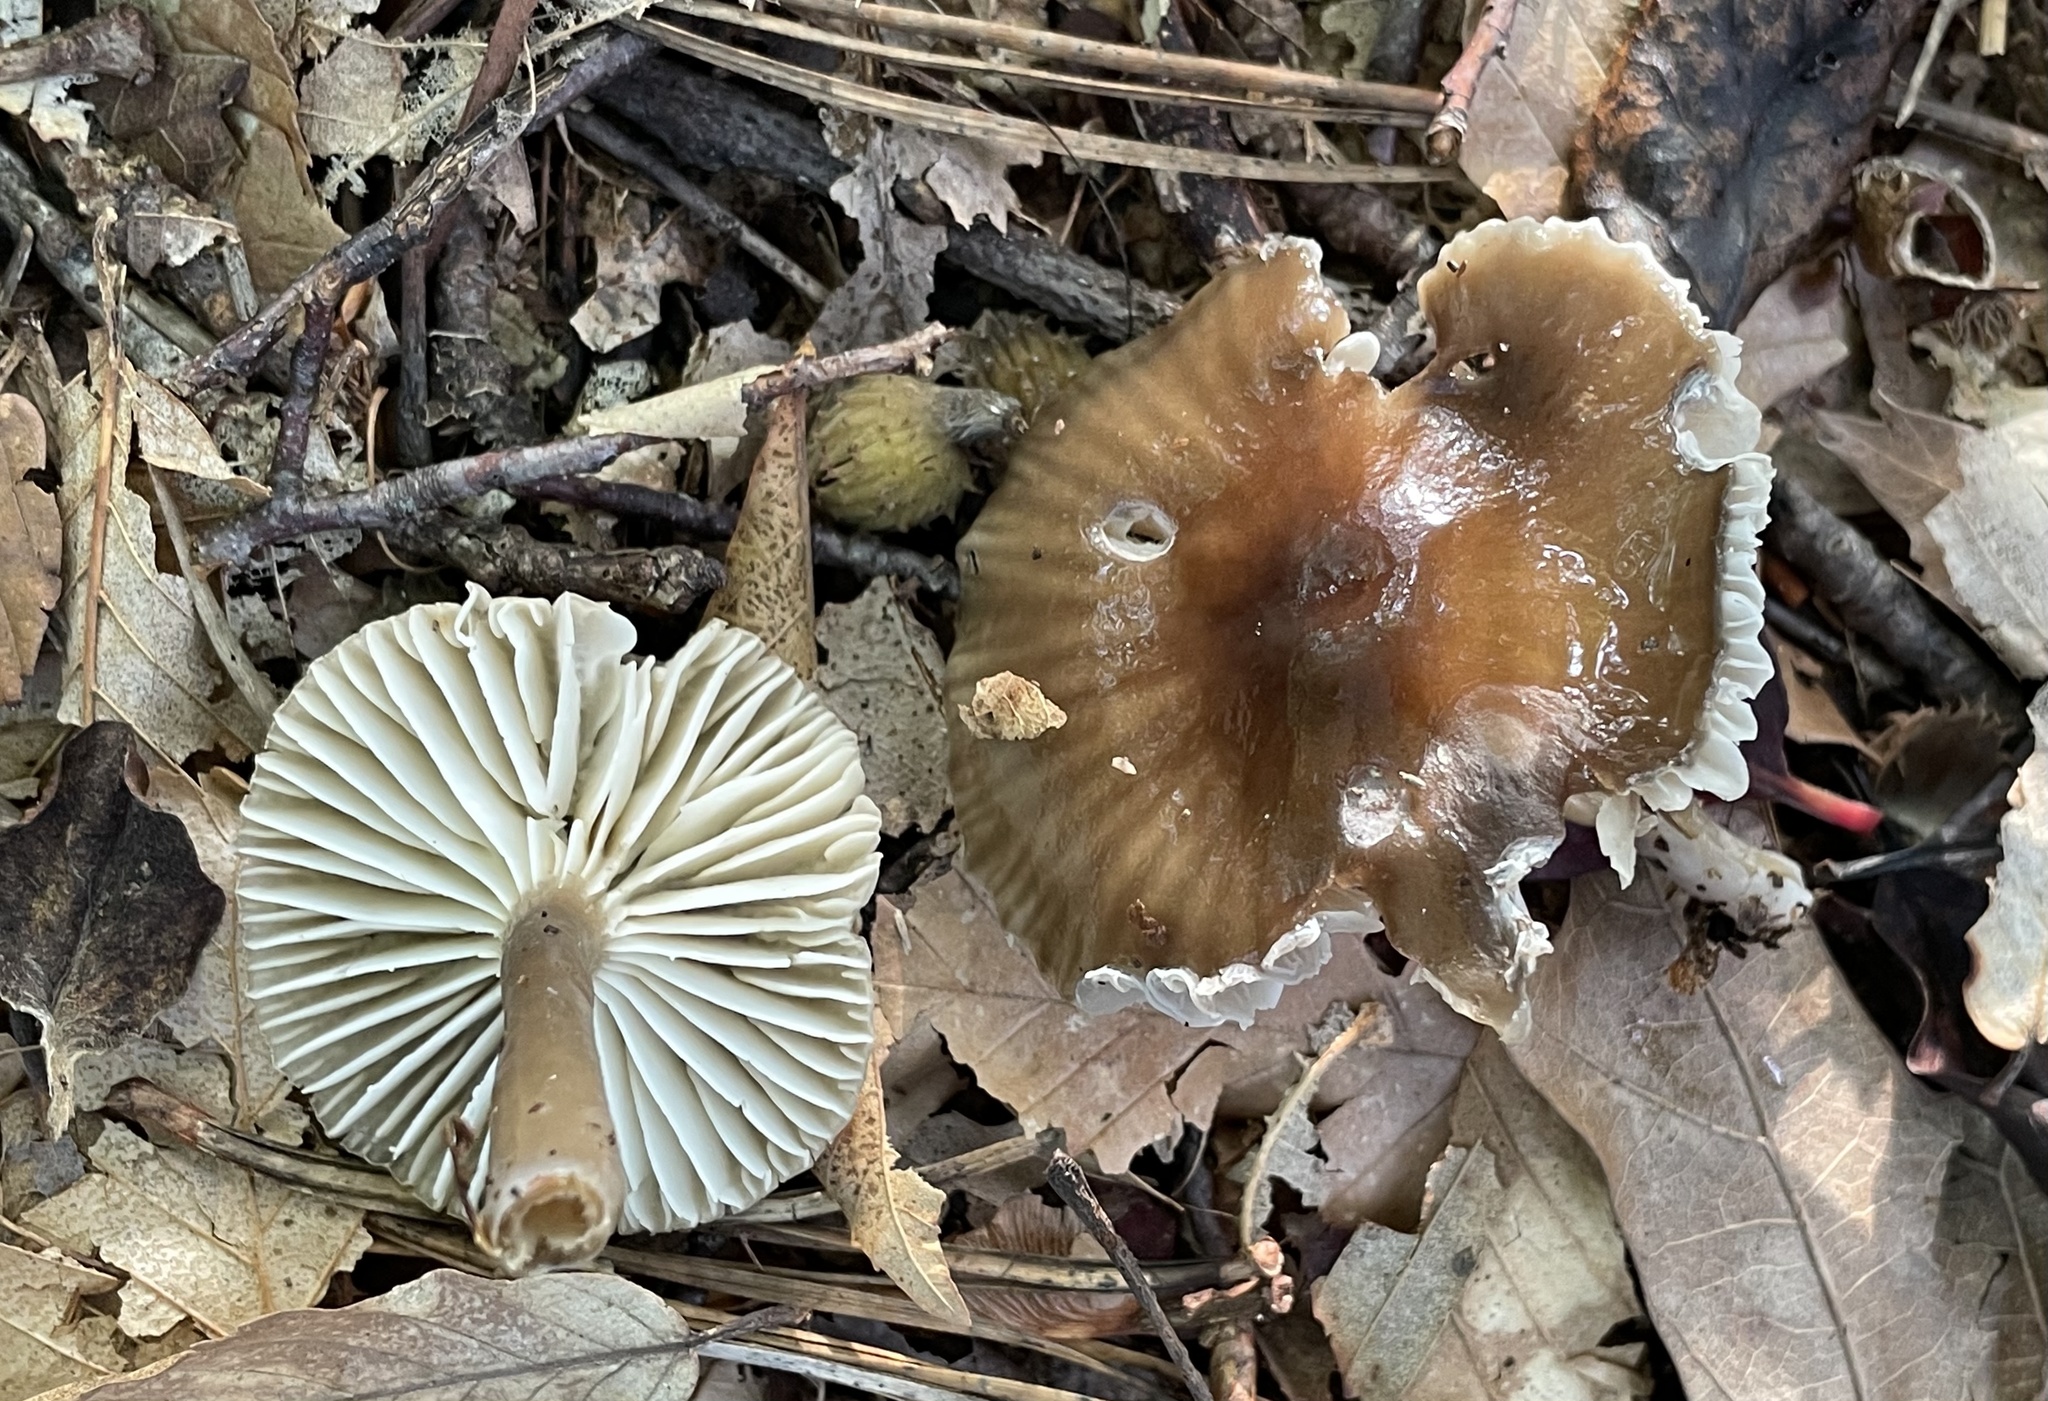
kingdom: Fungi
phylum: Basidiomycota
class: Agaricomycetes
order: Agaricales
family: Hygrophoraceae
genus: Gliophorus
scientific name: Gliophorus irrigatus
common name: Slimy waxcap
